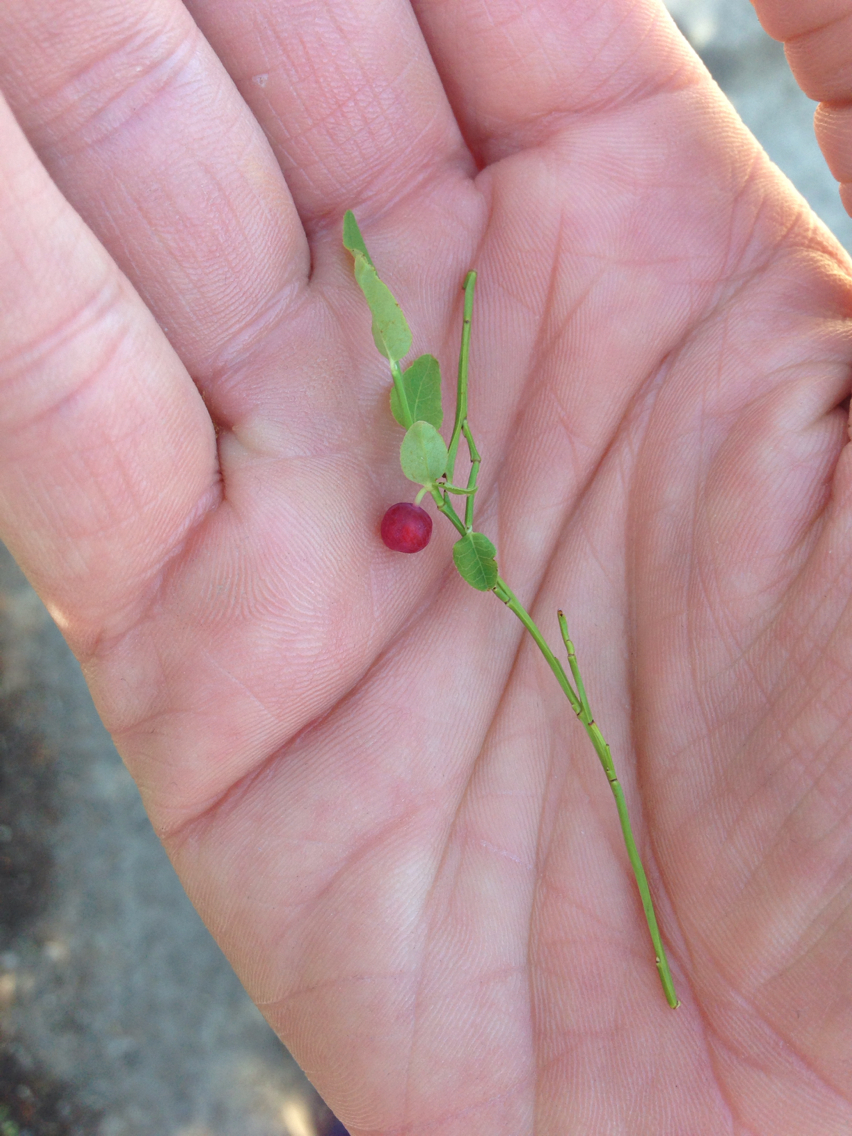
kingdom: Plantae
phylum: Tracheophyta
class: Magnoliopsida
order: Ericales
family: Ericaceae
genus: Vaccinium
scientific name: Vaccinium scoparium
